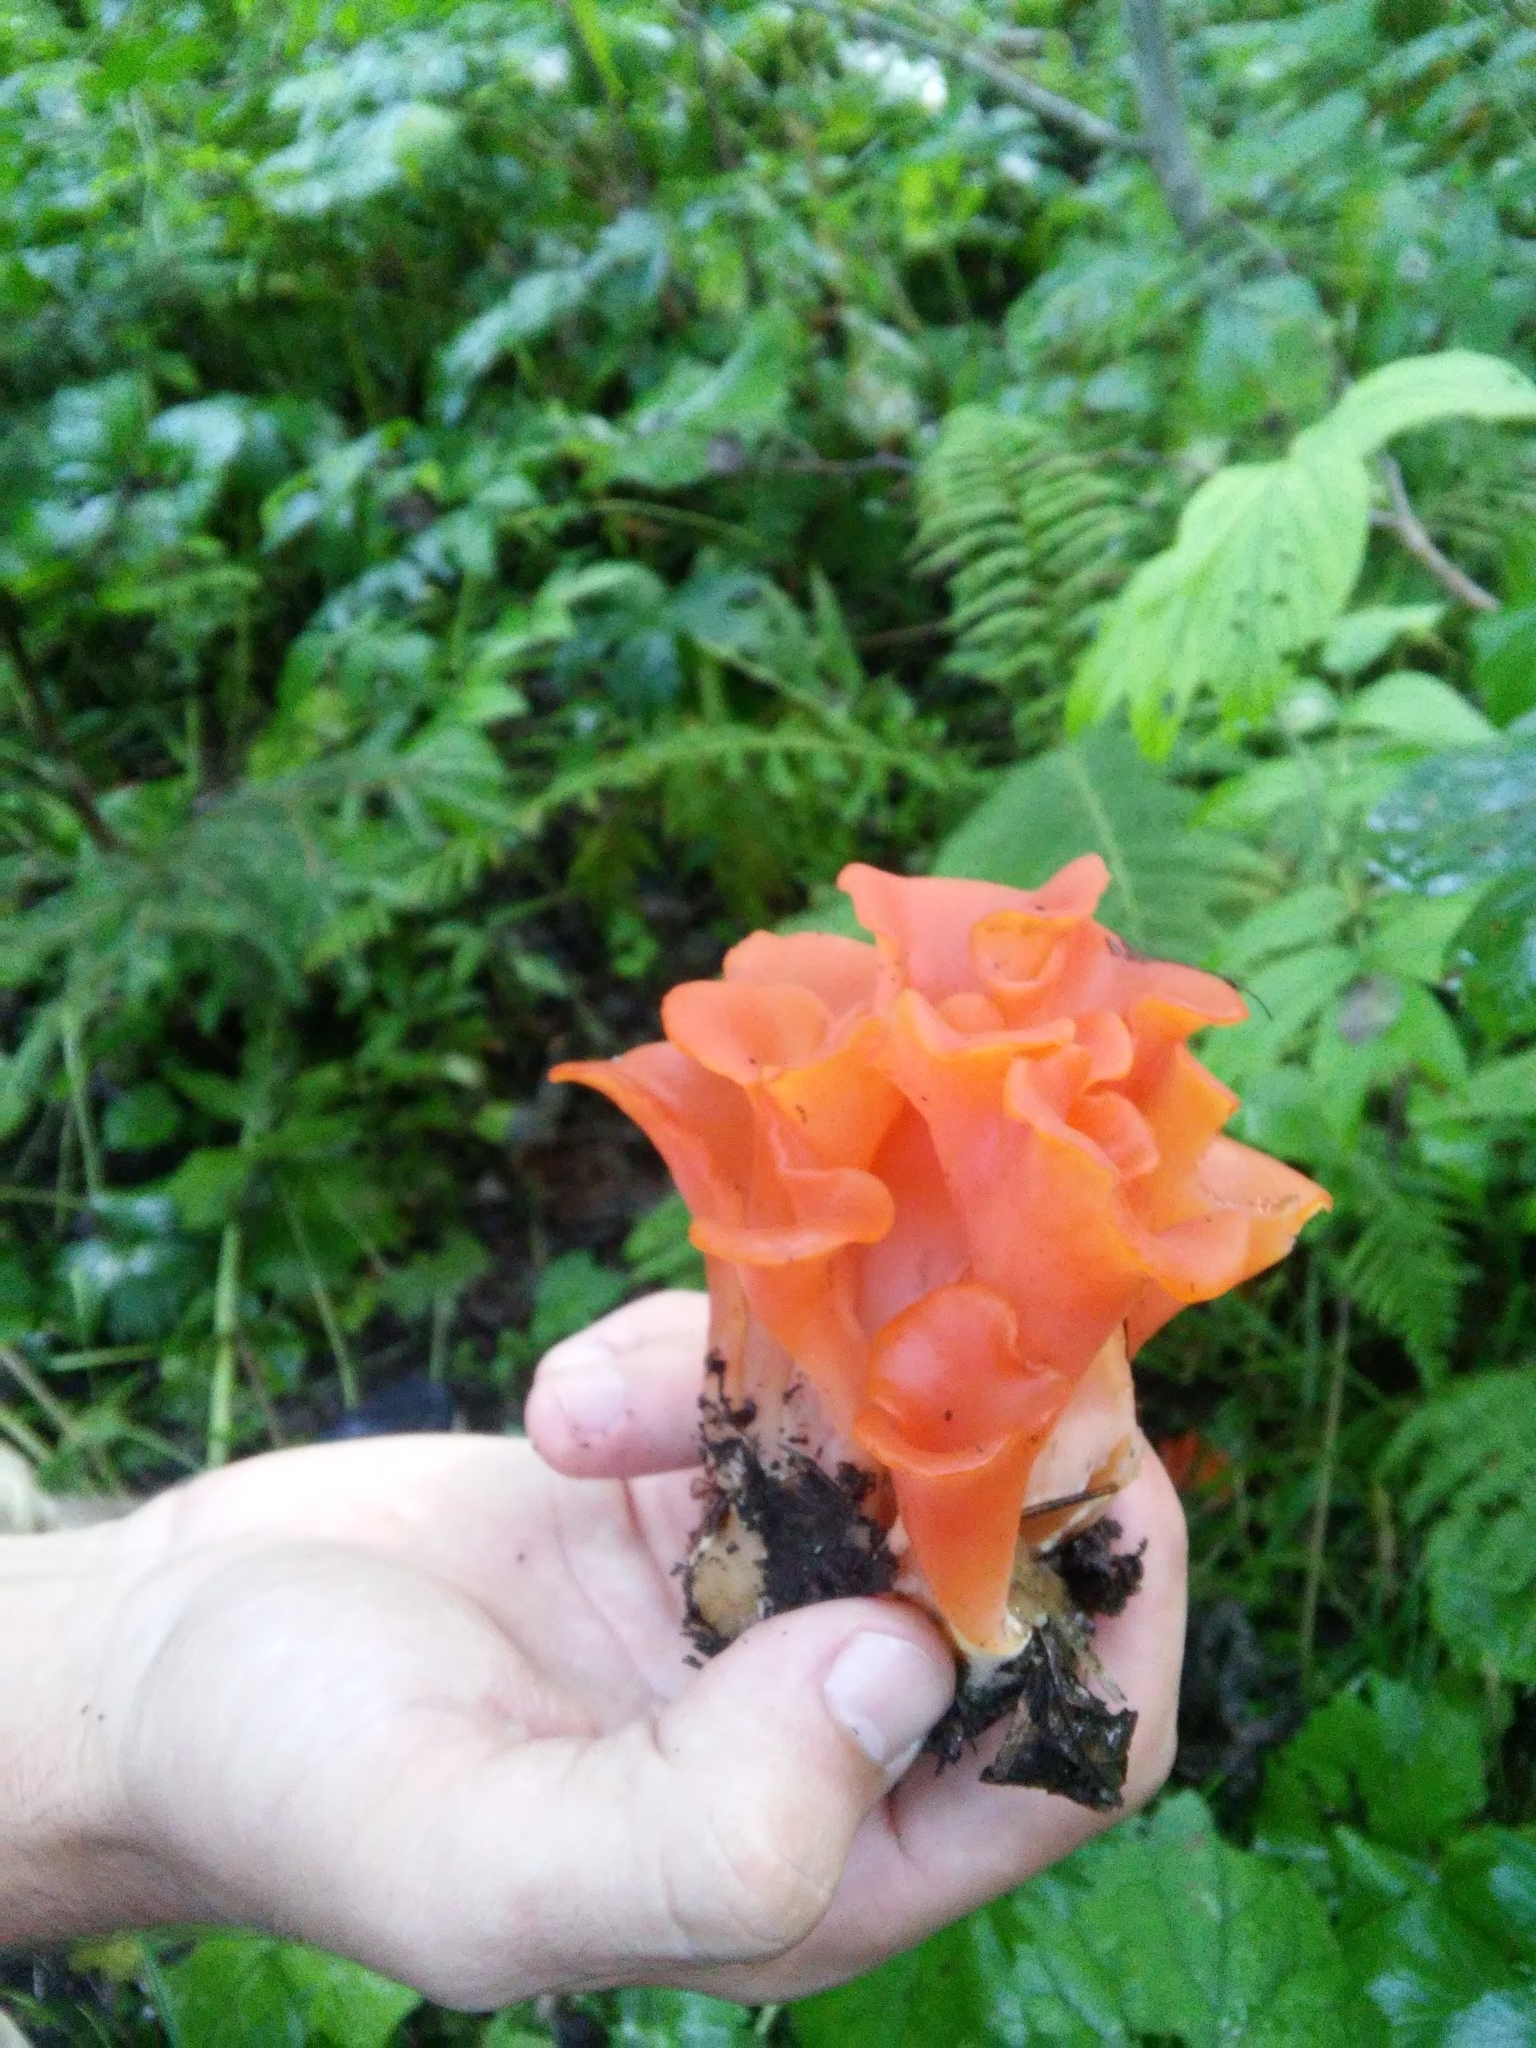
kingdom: Fungi
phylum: Basidiomycota
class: Agaricomycetes
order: Auriculariales
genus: Guepinia
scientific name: Guepinia helvelloides
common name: Salmon salad
